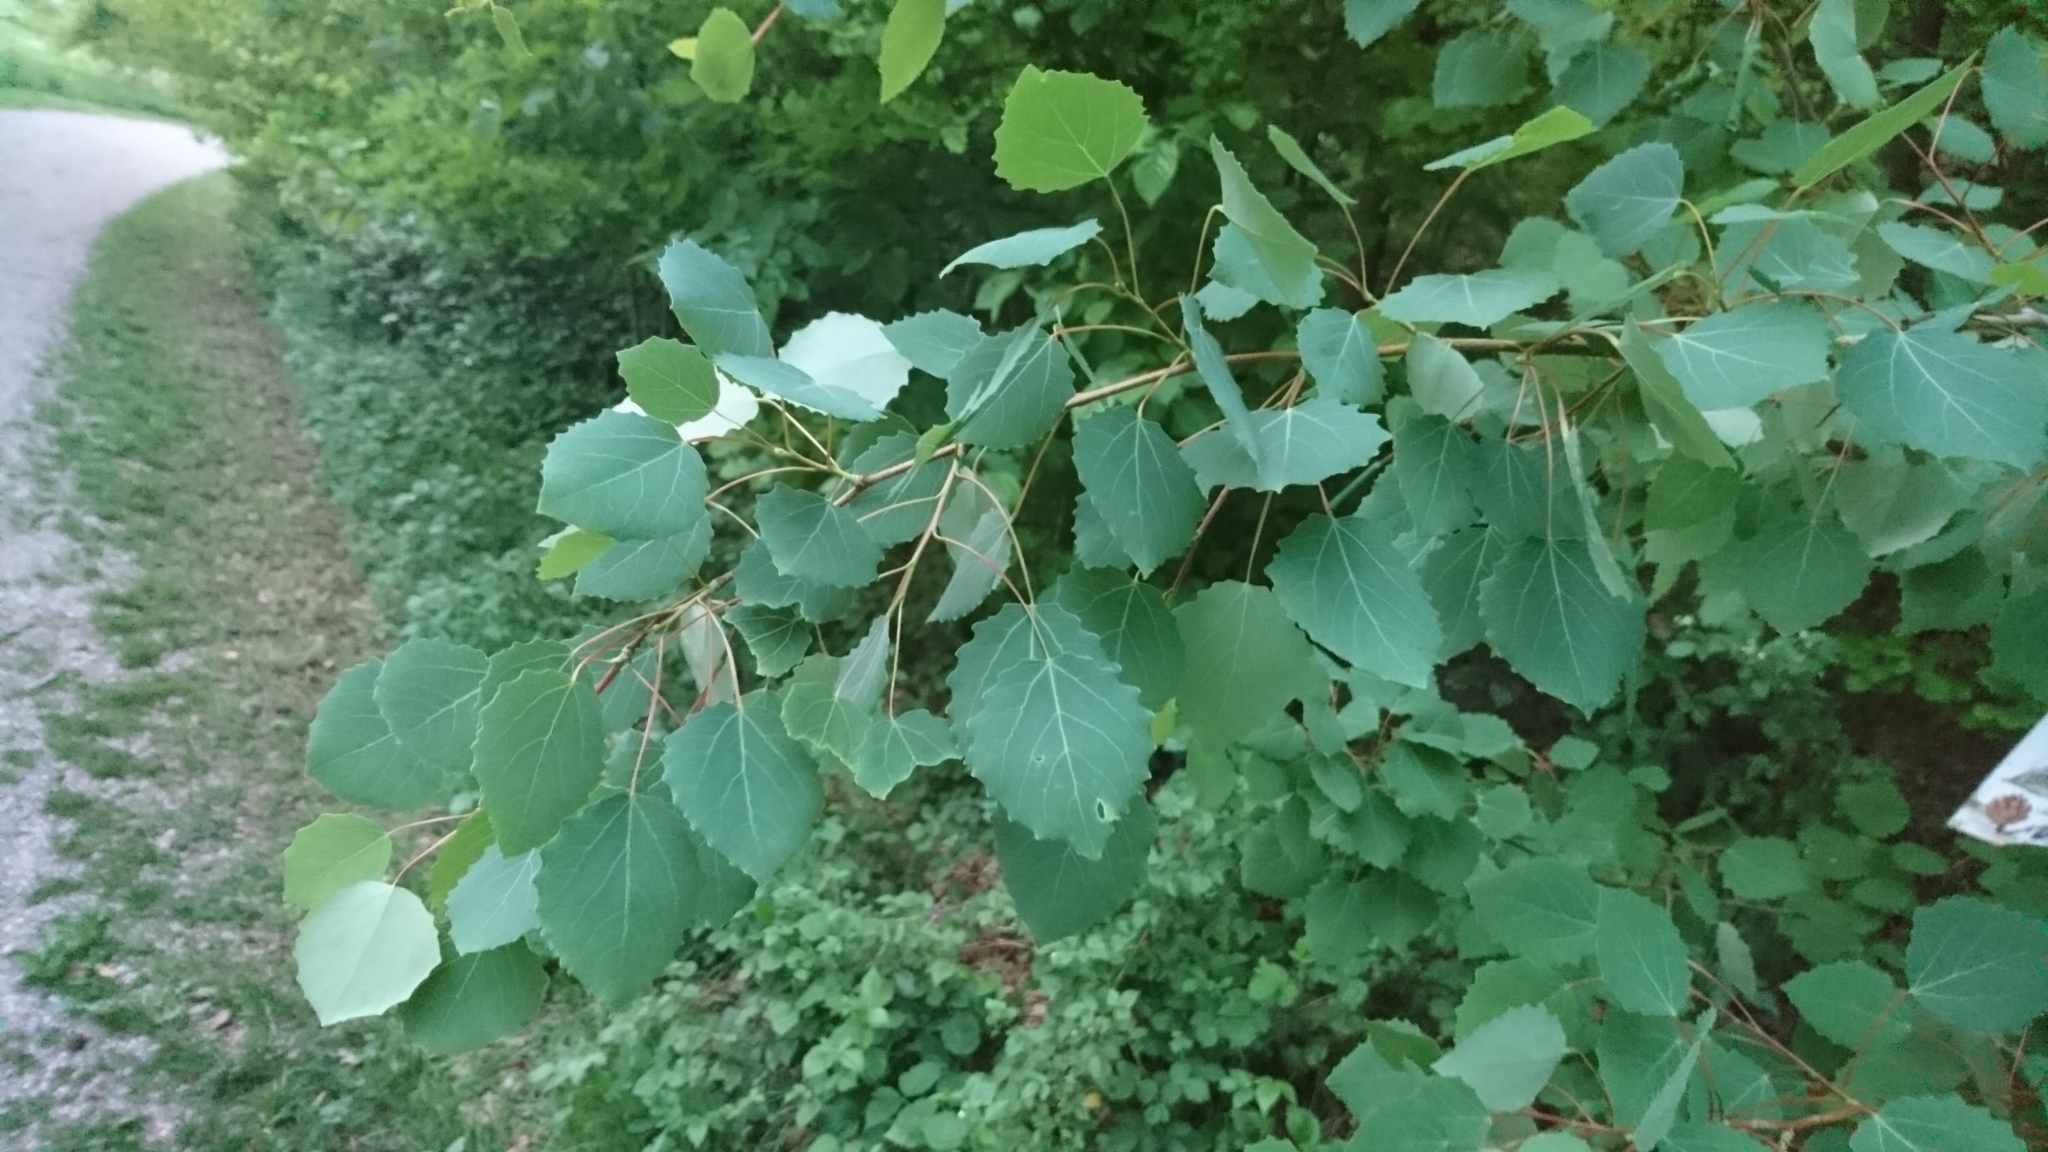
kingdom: Plantae
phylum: Tracheophyta
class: Magnoliopsida
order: Malpighiales
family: Salicaceae
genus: Populus
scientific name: Populus tremula
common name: European aspen
